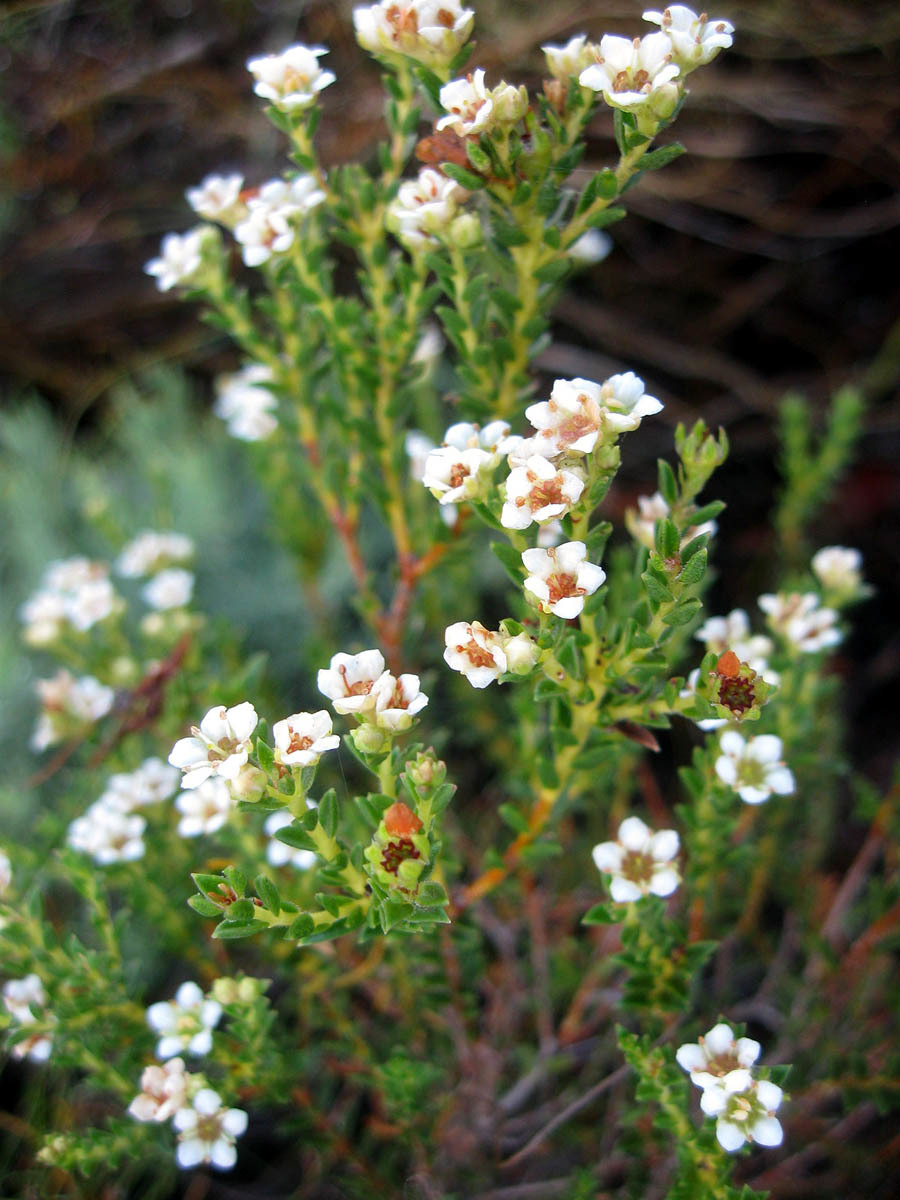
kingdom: Plantae
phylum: Tracheophyta
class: Magnoliopsida
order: Sapindales
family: Rutaceae
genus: Diosma
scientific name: Diosma oppositifolia
